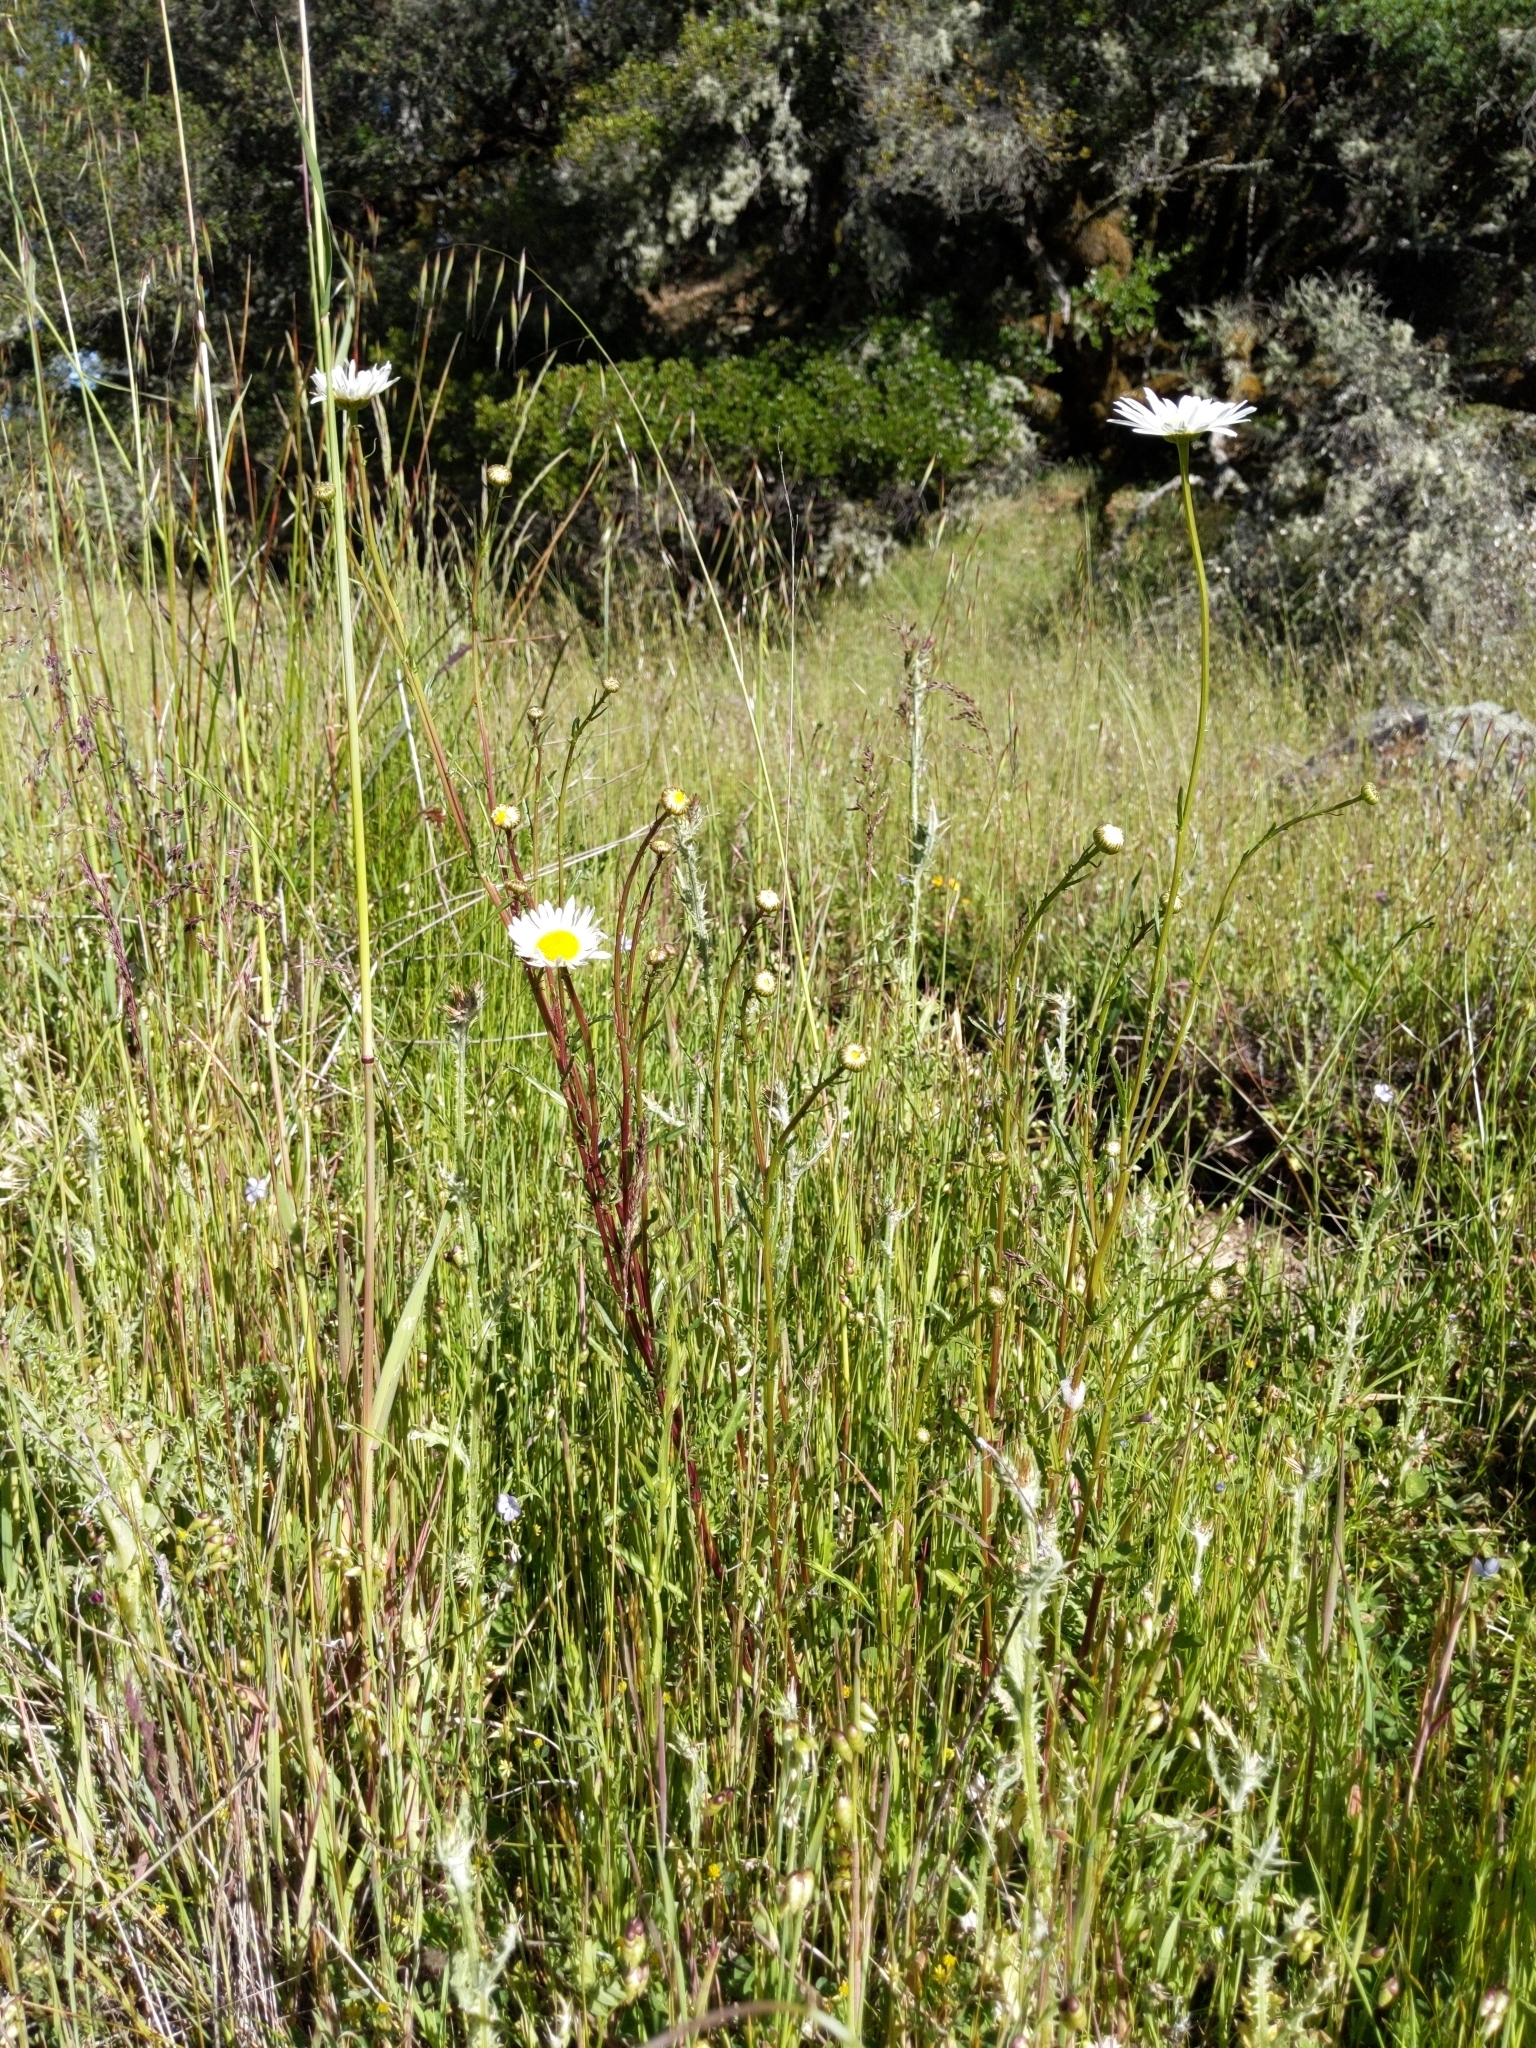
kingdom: Plantae
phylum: Tracheophyta
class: Magnoliopsida
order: Asterales
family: Asteraceae
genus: Leucanthemum
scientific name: Leucanthemum vulgare
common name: Oxeye daisy
